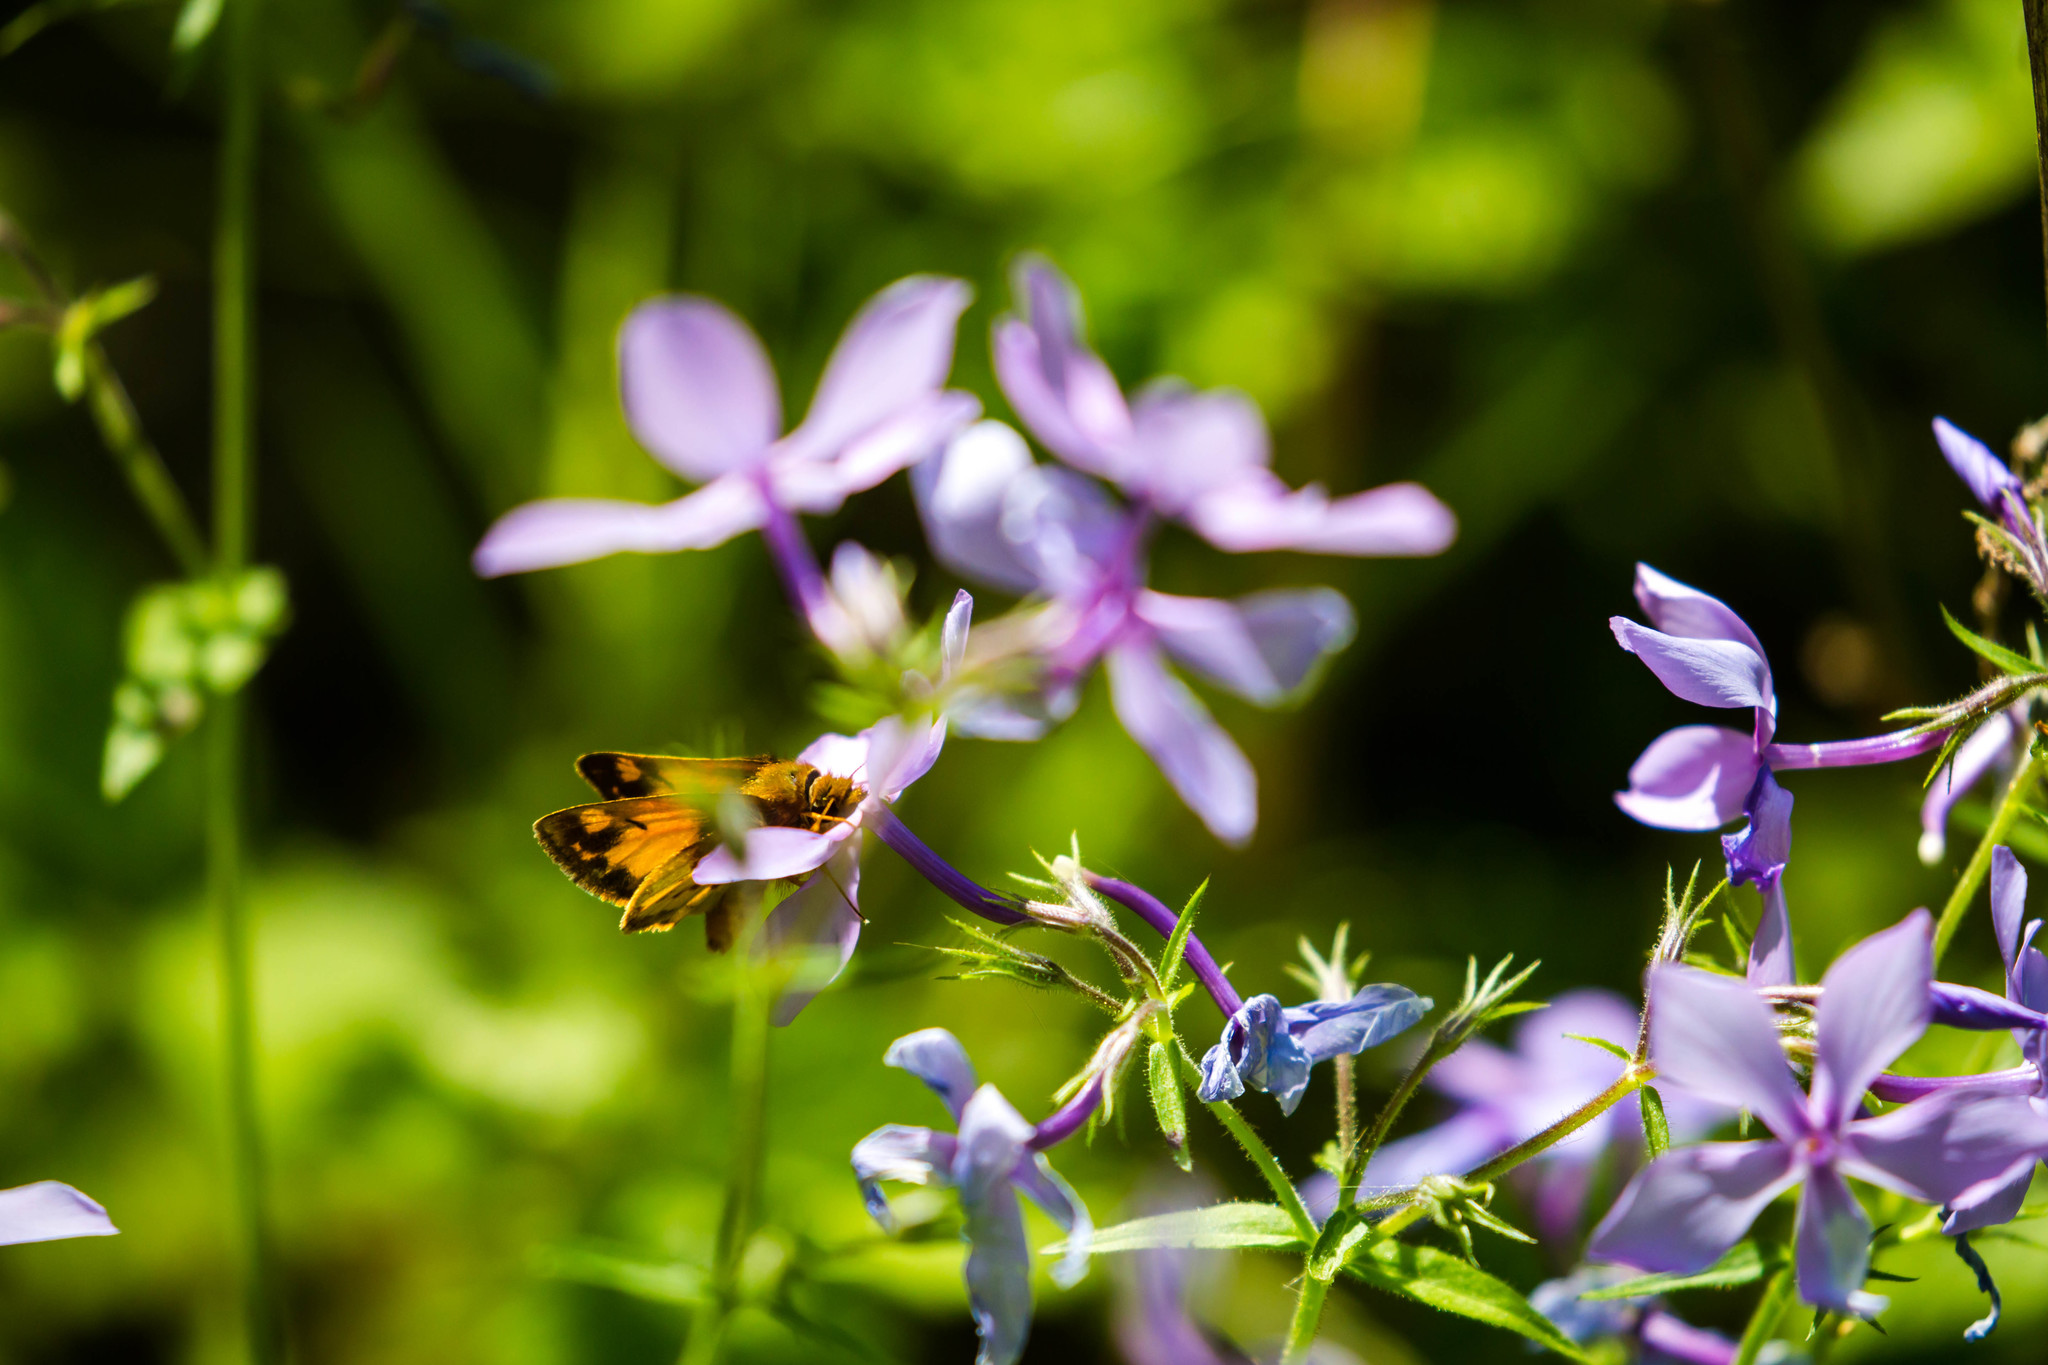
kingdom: Animalia
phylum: Arthropoda
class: Insecta
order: Lepidoptera
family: Hesperiidae
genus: Lon
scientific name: Lon zabulon
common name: Zabulon skipper
